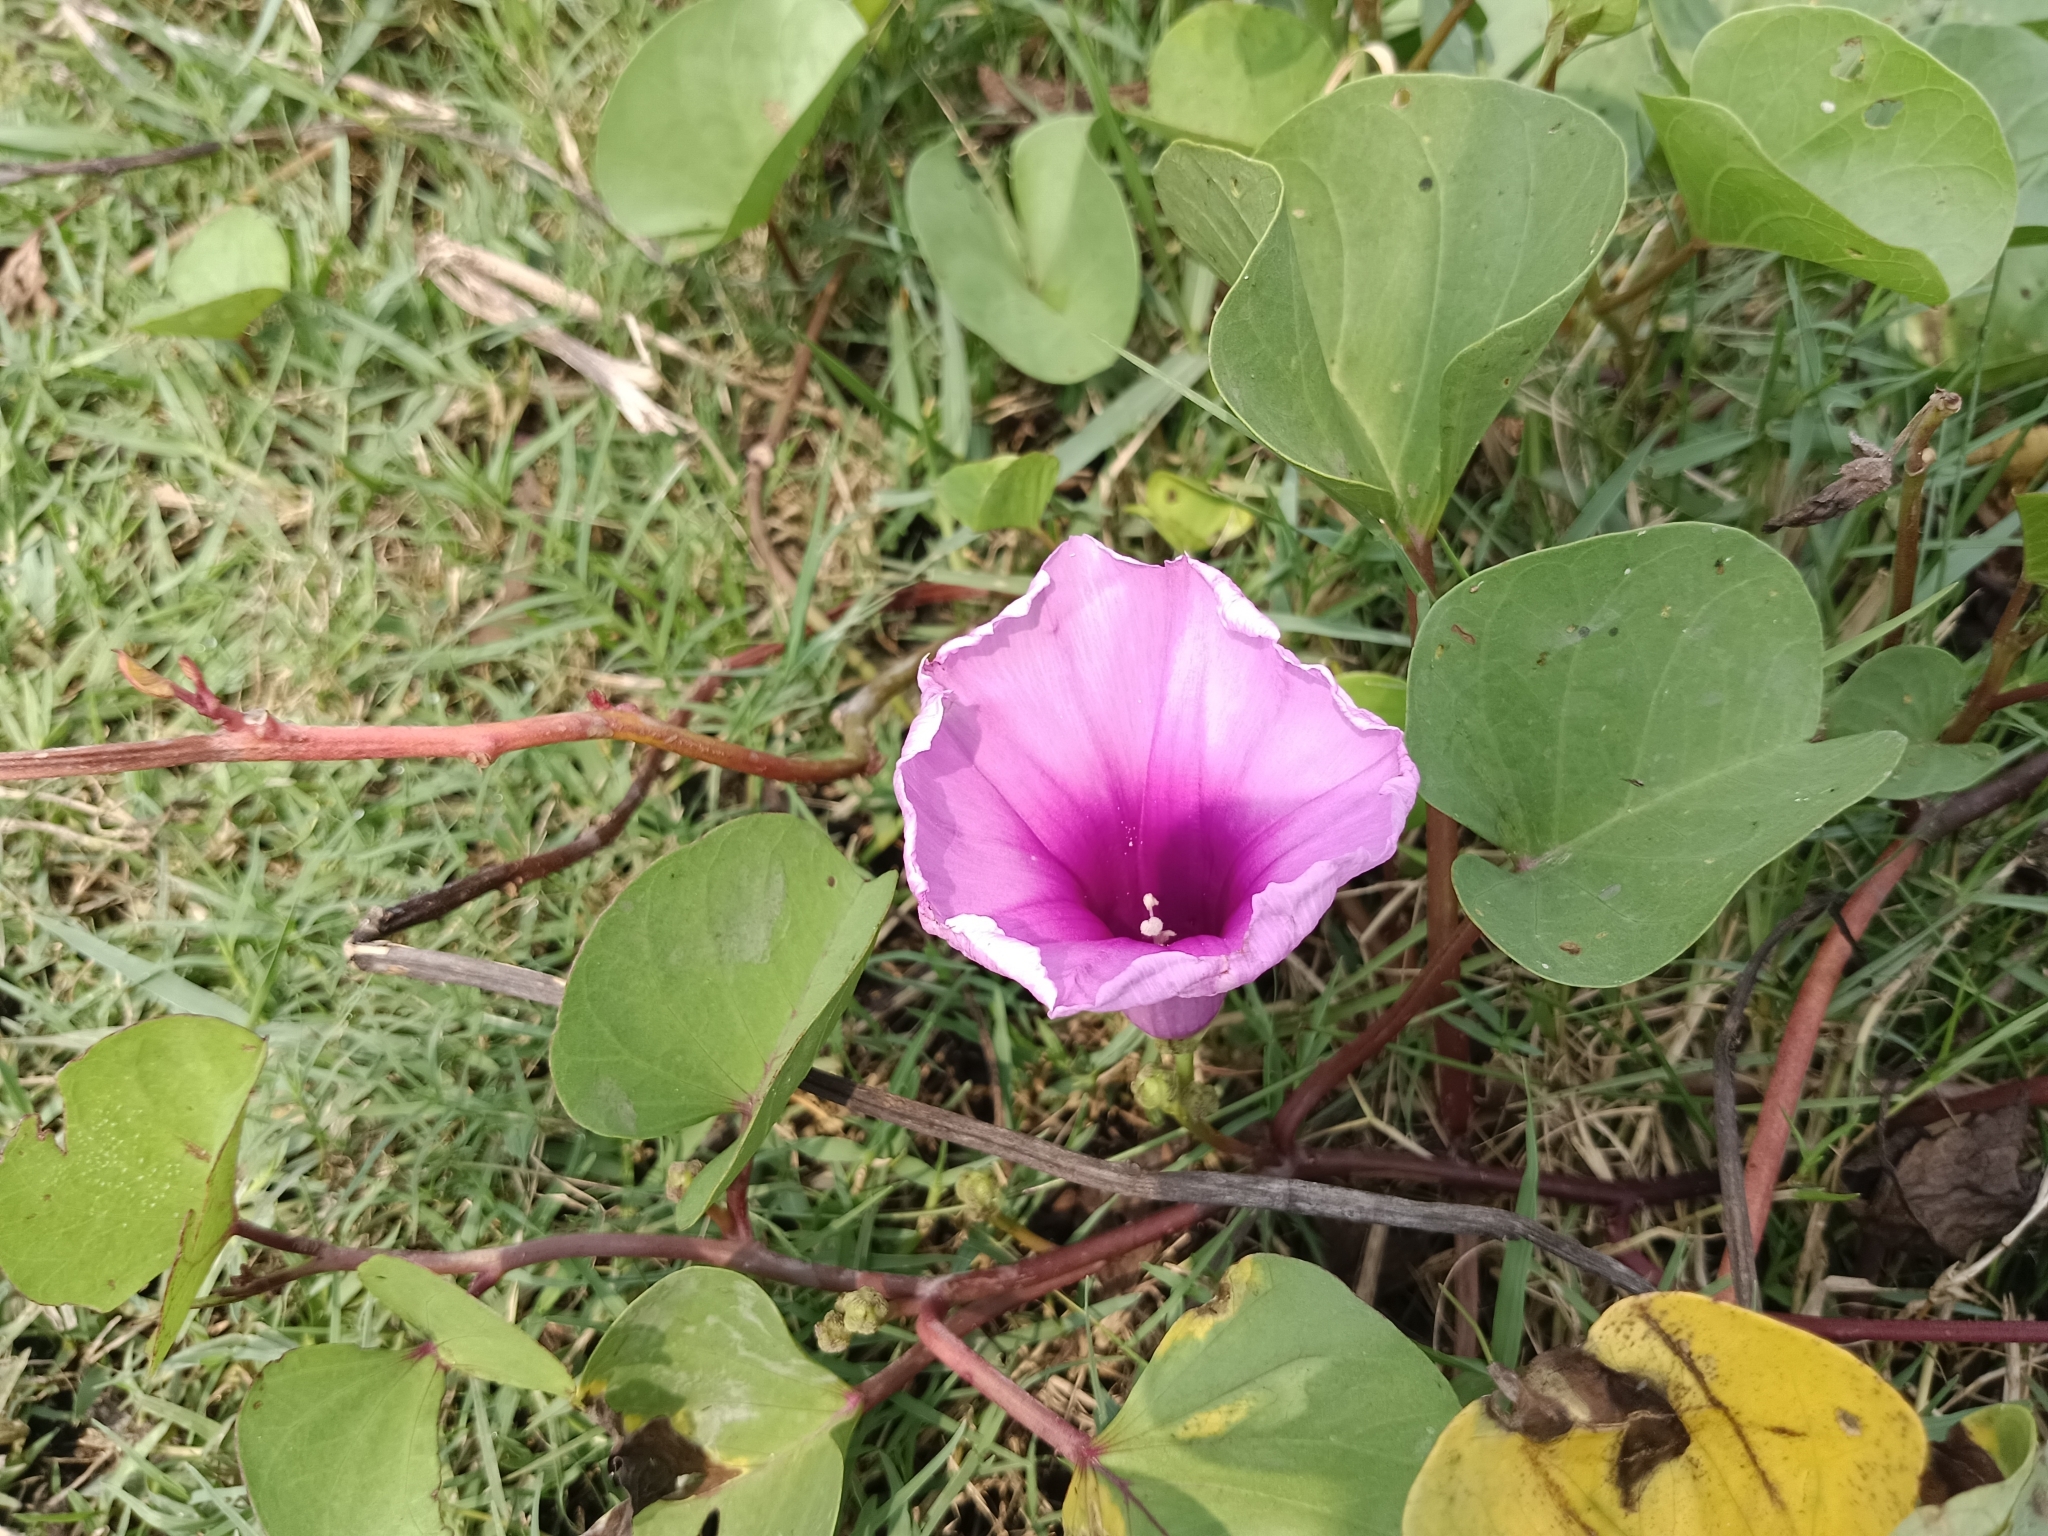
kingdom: Plantae
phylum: Tracheophyta
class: Magnoliopsida
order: Solanales
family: Convolvulaceae
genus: Ipomoea
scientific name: Ipomoea pes-caprae
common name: Beach morning glory
